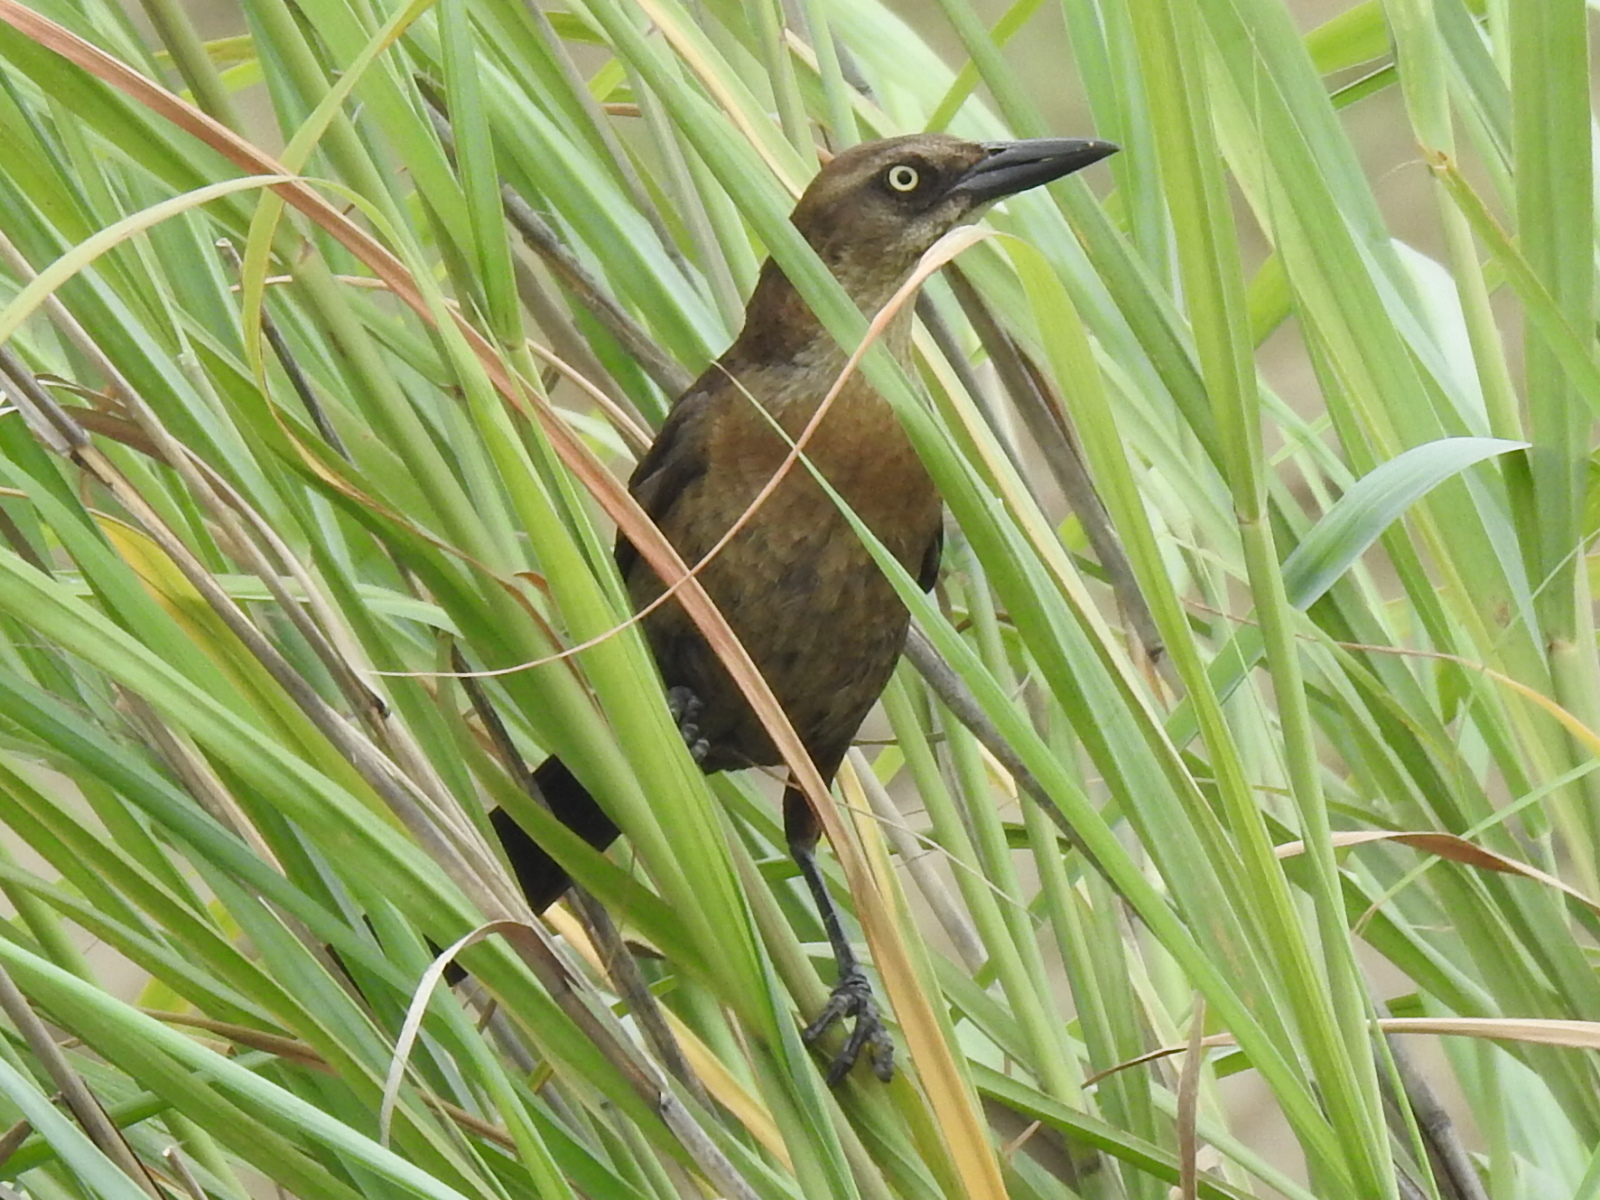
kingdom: Animalia
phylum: Chordata
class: Aves
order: Passeriformes
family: Icteridae
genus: Quiscalus
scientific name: Quiscalus mexicanus
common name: Great-tailed grackle
